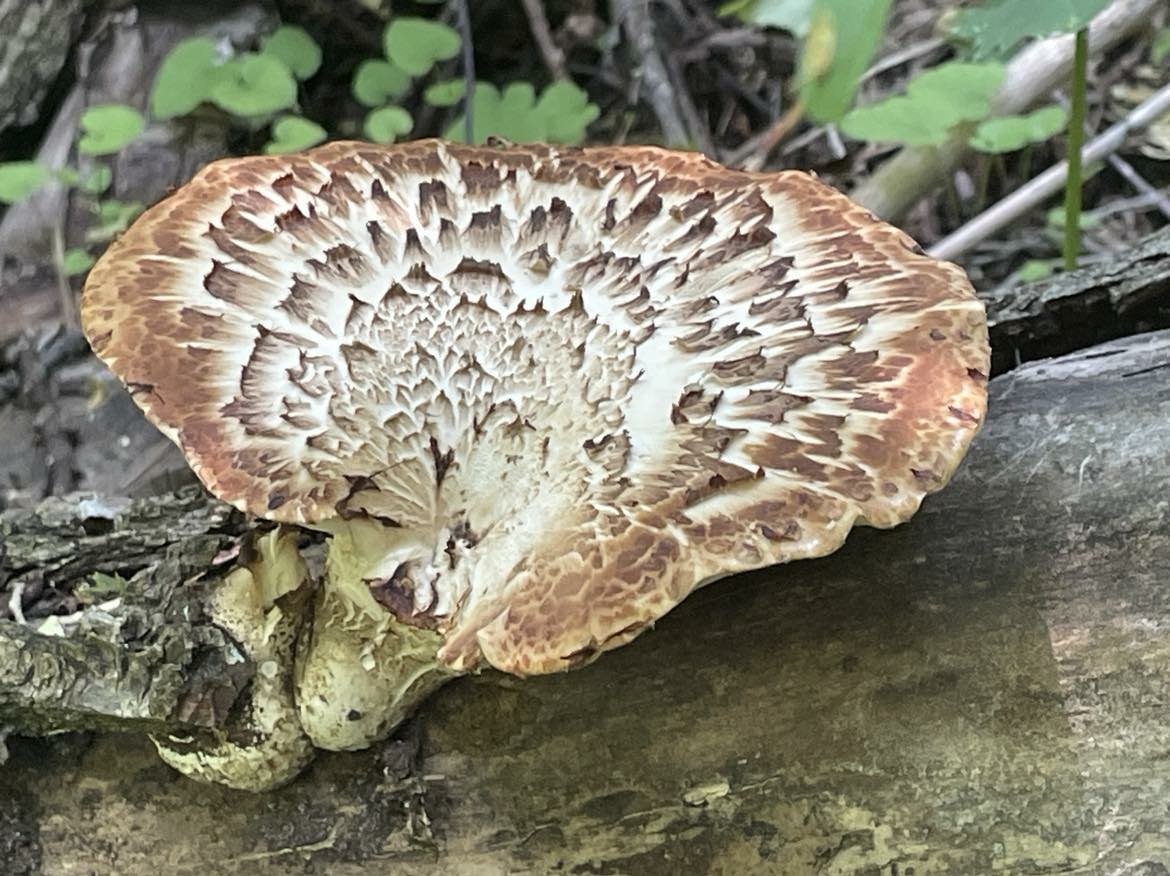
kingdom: Fungi
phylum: Basidiomycota
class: Agaricomycetes
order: Polyporales
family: Polyporaceae
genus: Cerioporus
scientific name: Cerioporus squamosus
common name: Dryad's saddle
